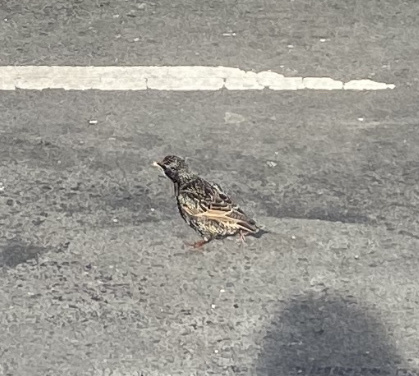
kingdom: Animalia
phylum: Chordata
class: Aves
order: Passeriformes
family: Sturnidae
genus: Sturnus
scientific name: Sturnus vulgaris
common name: Common starling
